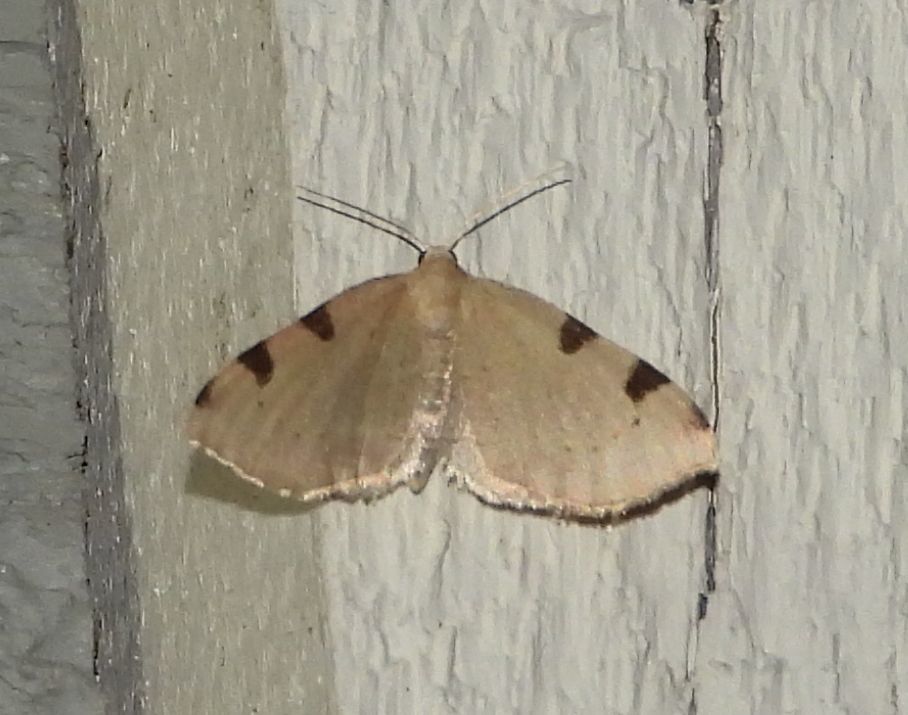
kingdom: Animalia
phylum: Arthropoda
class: Insecta
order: Lepidoptera
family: Geometridae
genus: Heterophleps
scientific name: Heterophleps triguttaria
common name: Three-spotted fillip
